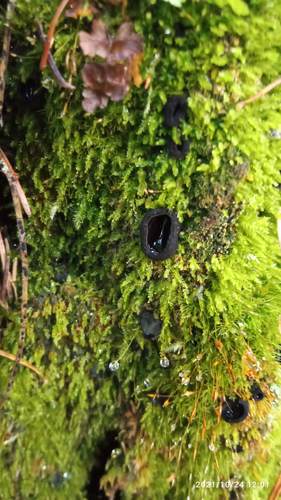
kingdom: Fungi
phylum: Ascomycota
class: Pezizomycetes
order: Pezizales
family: Sarcosomataceae
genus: Pseudoplectania
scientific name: Pseudoplectania nigrella
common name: Ebony cup
